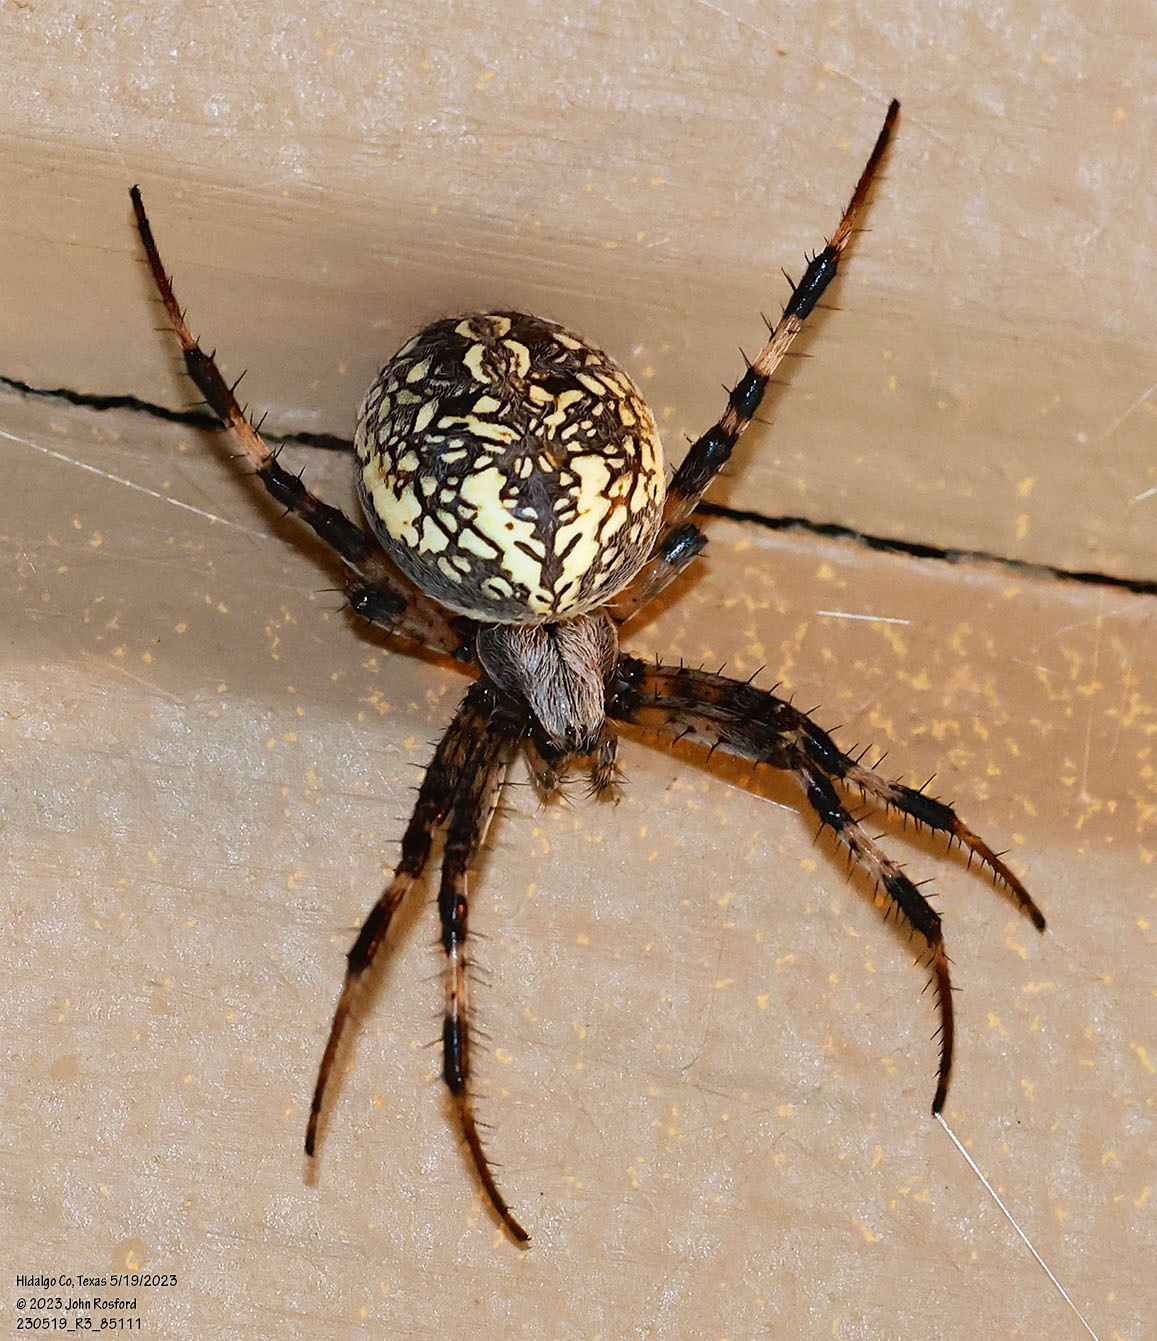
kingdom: Animalia
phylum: Arthropoda
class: Arachnida
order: Araneae
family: Araneidae
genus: Neoscona
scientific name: Neoscona oaxacensis
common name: Orb weavers
